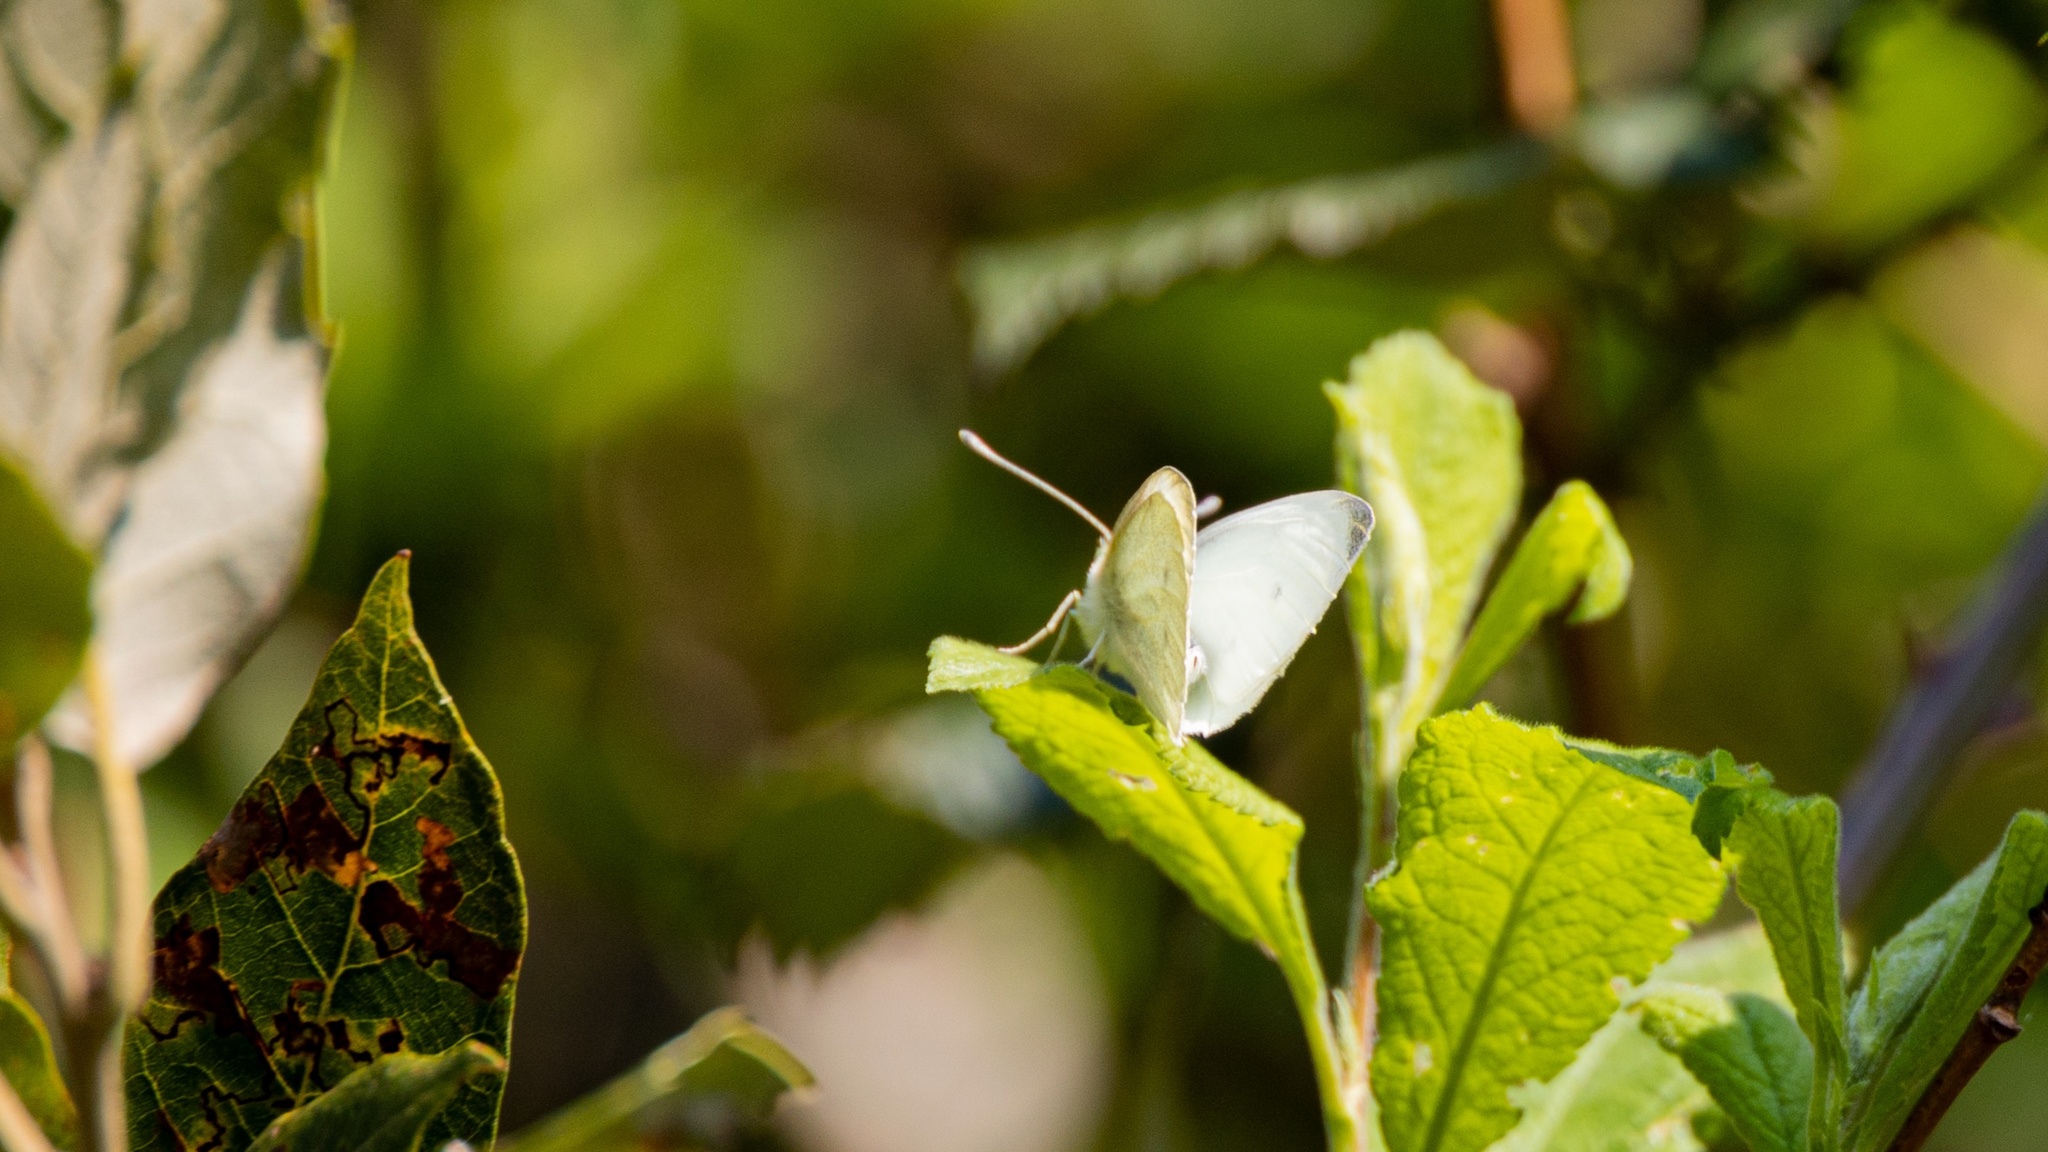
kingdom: Animalia
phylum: Arthropoda
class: Insecta
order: Lepidoptera
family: Pieridae
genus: Pieris
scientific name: Pieris rapae
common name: Small white
